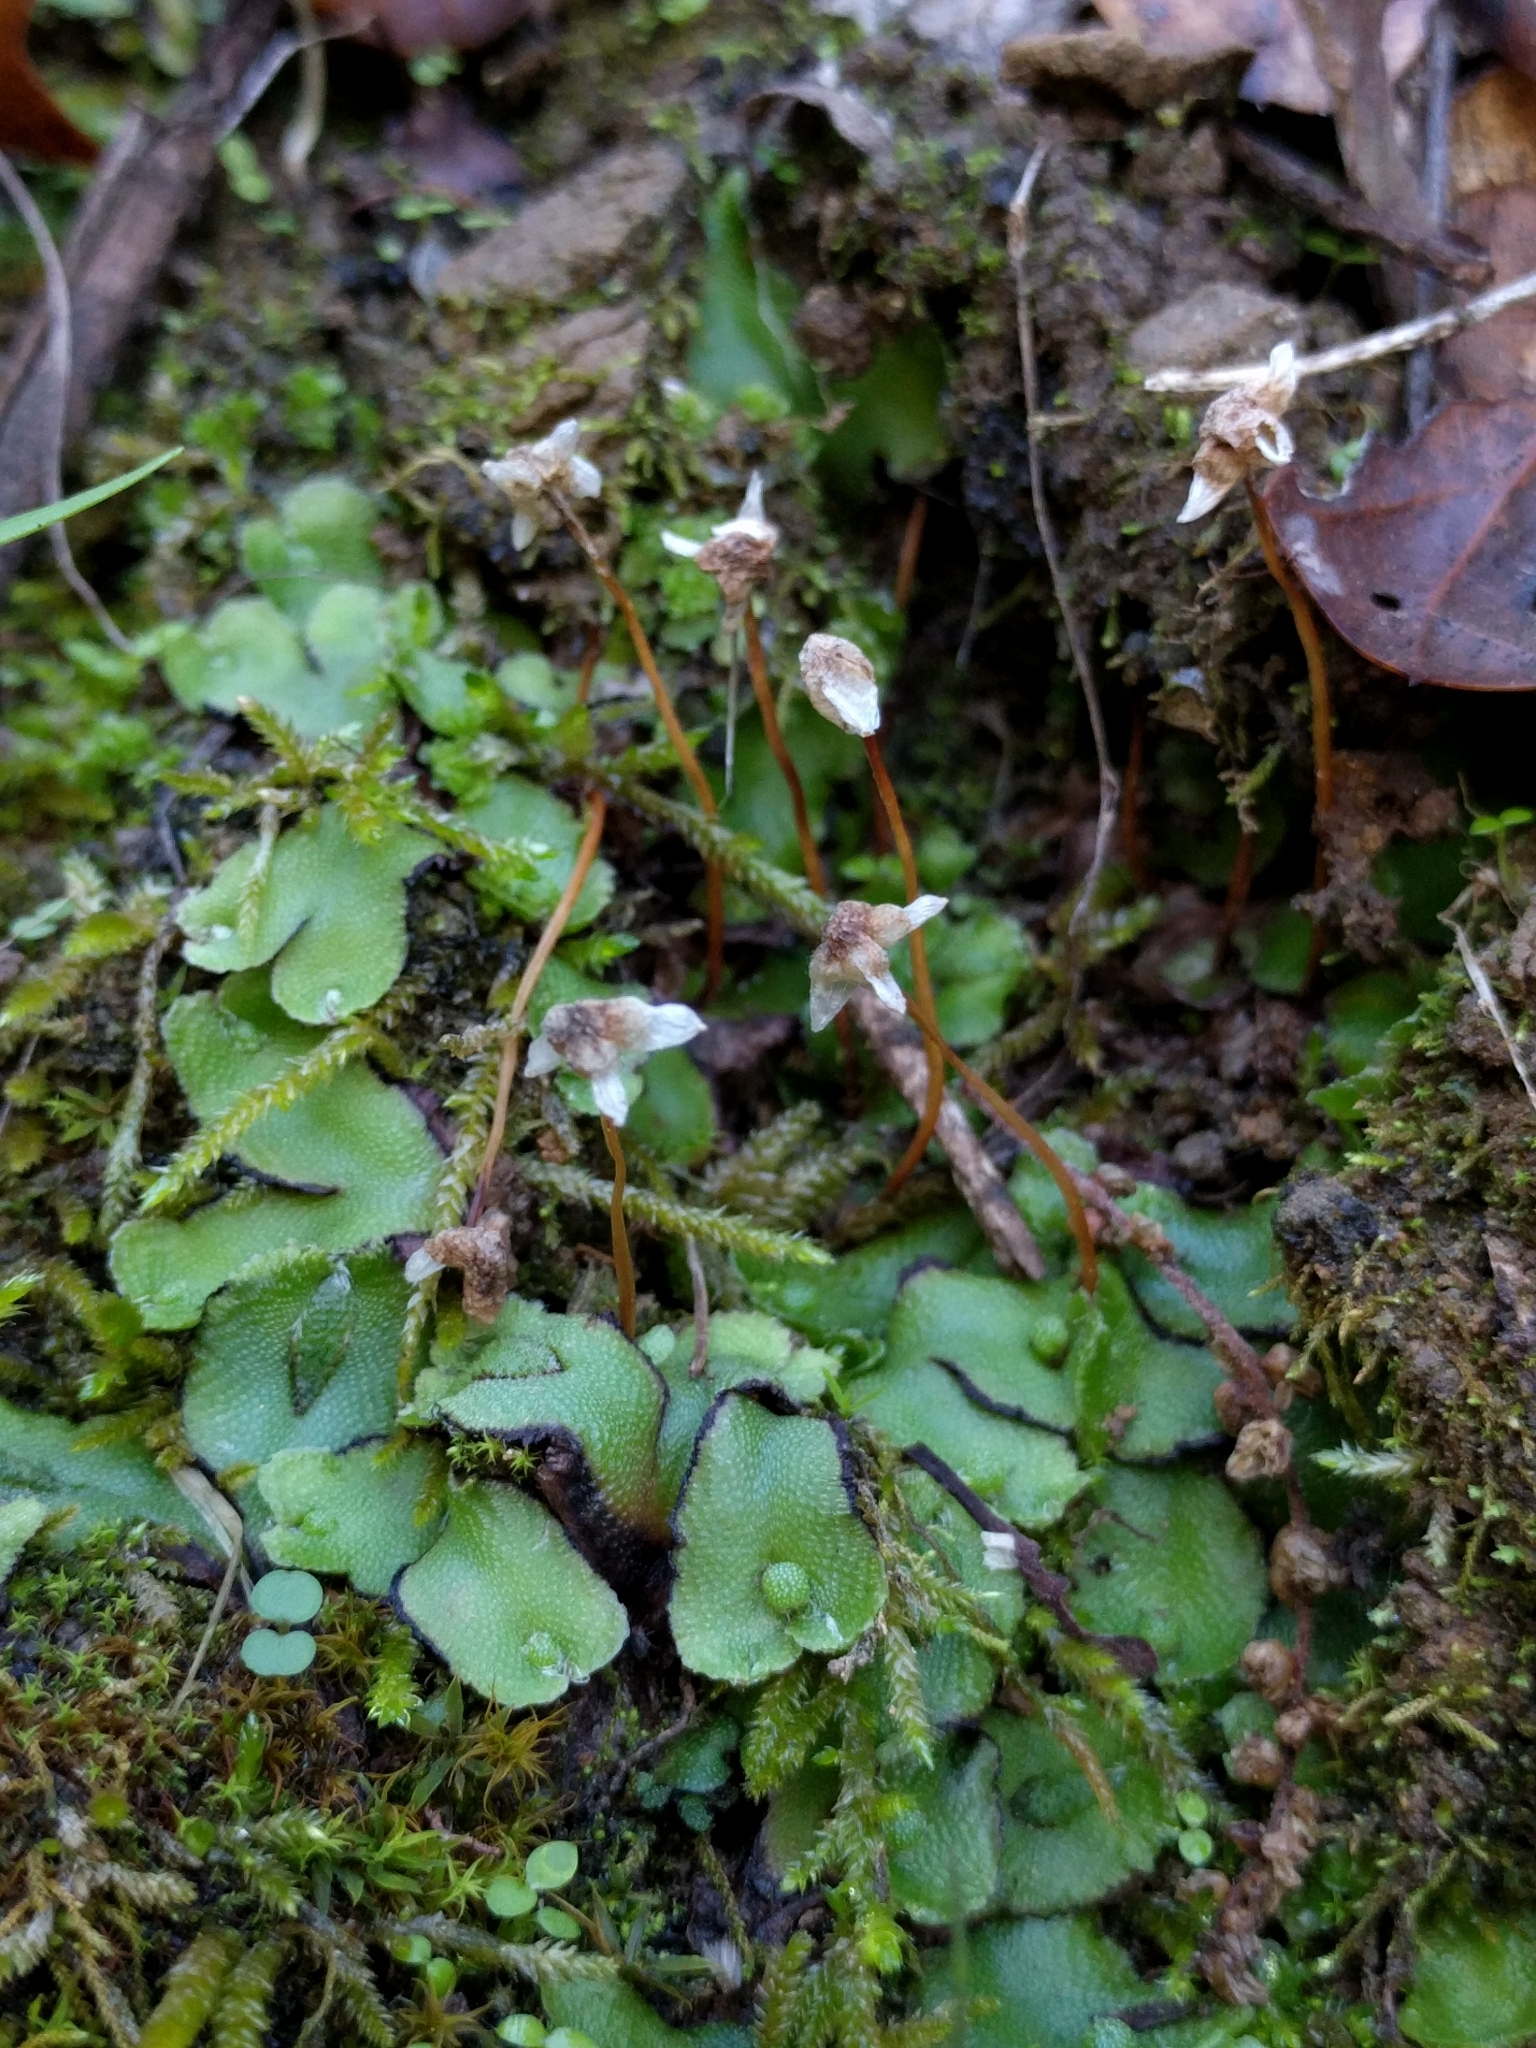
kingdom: Plantae
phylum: Marchantiophyta
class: Marchantiopsida
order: Marchantiales
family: Aytoniaceae
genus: Asterella
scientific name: Asterella californica
